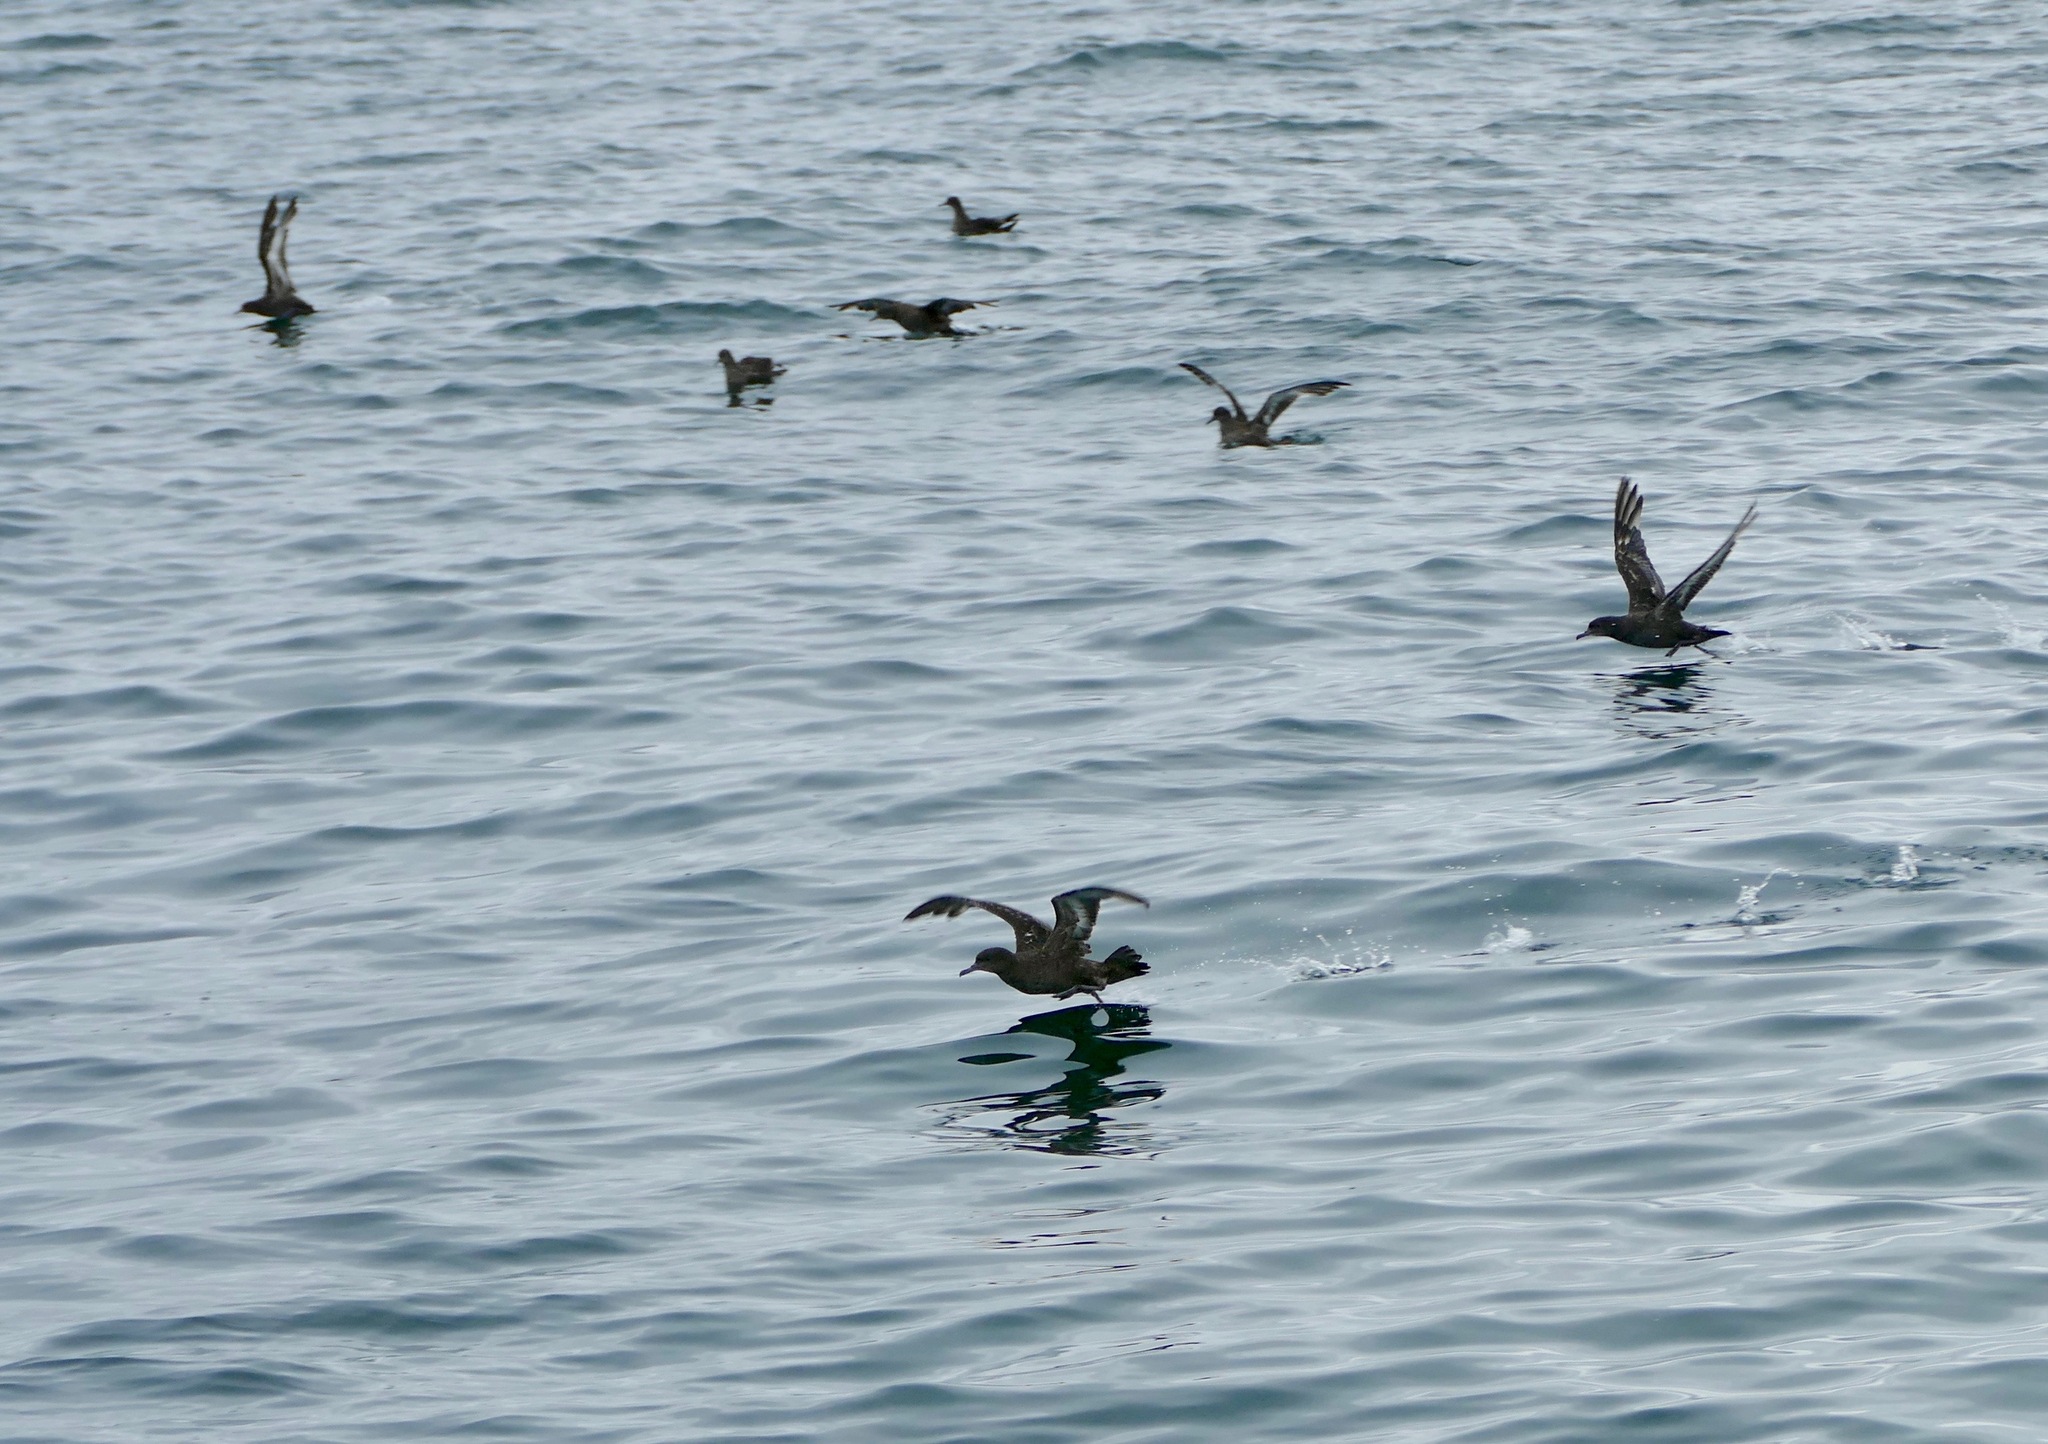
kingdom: Animalia
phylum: Chordata
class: Aves
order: Procellariiformes
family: Procellariidae
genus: Puffinus
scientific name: Puffinus griseus
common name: Sooty shearwater
